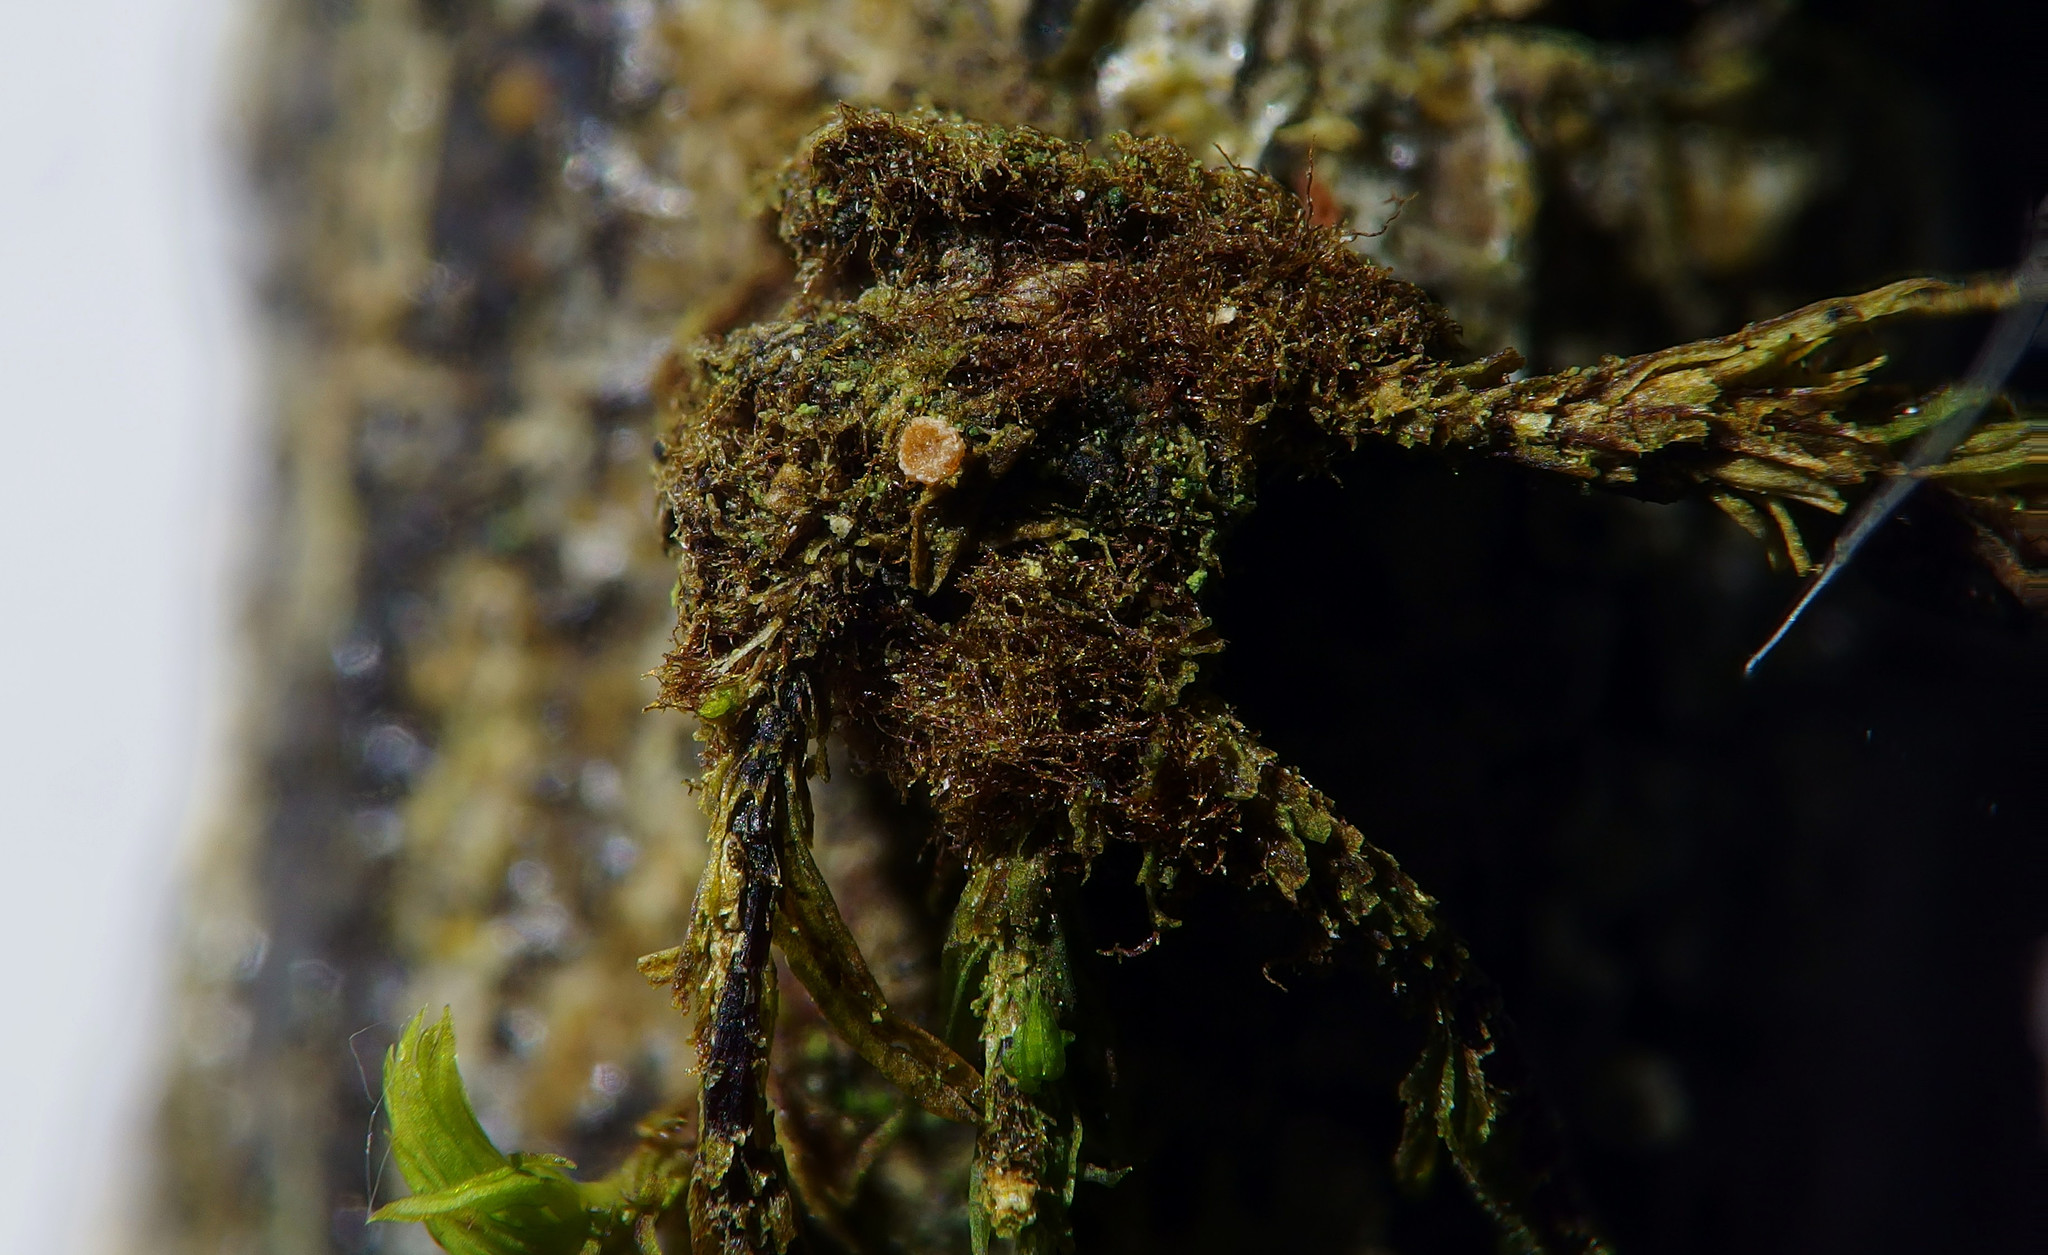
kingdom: Fungi
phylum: Ascomycota
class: Pezizomycetes
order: Pezizales
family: Pyronemataceae
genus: Octospora
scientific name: Octospora affinis
